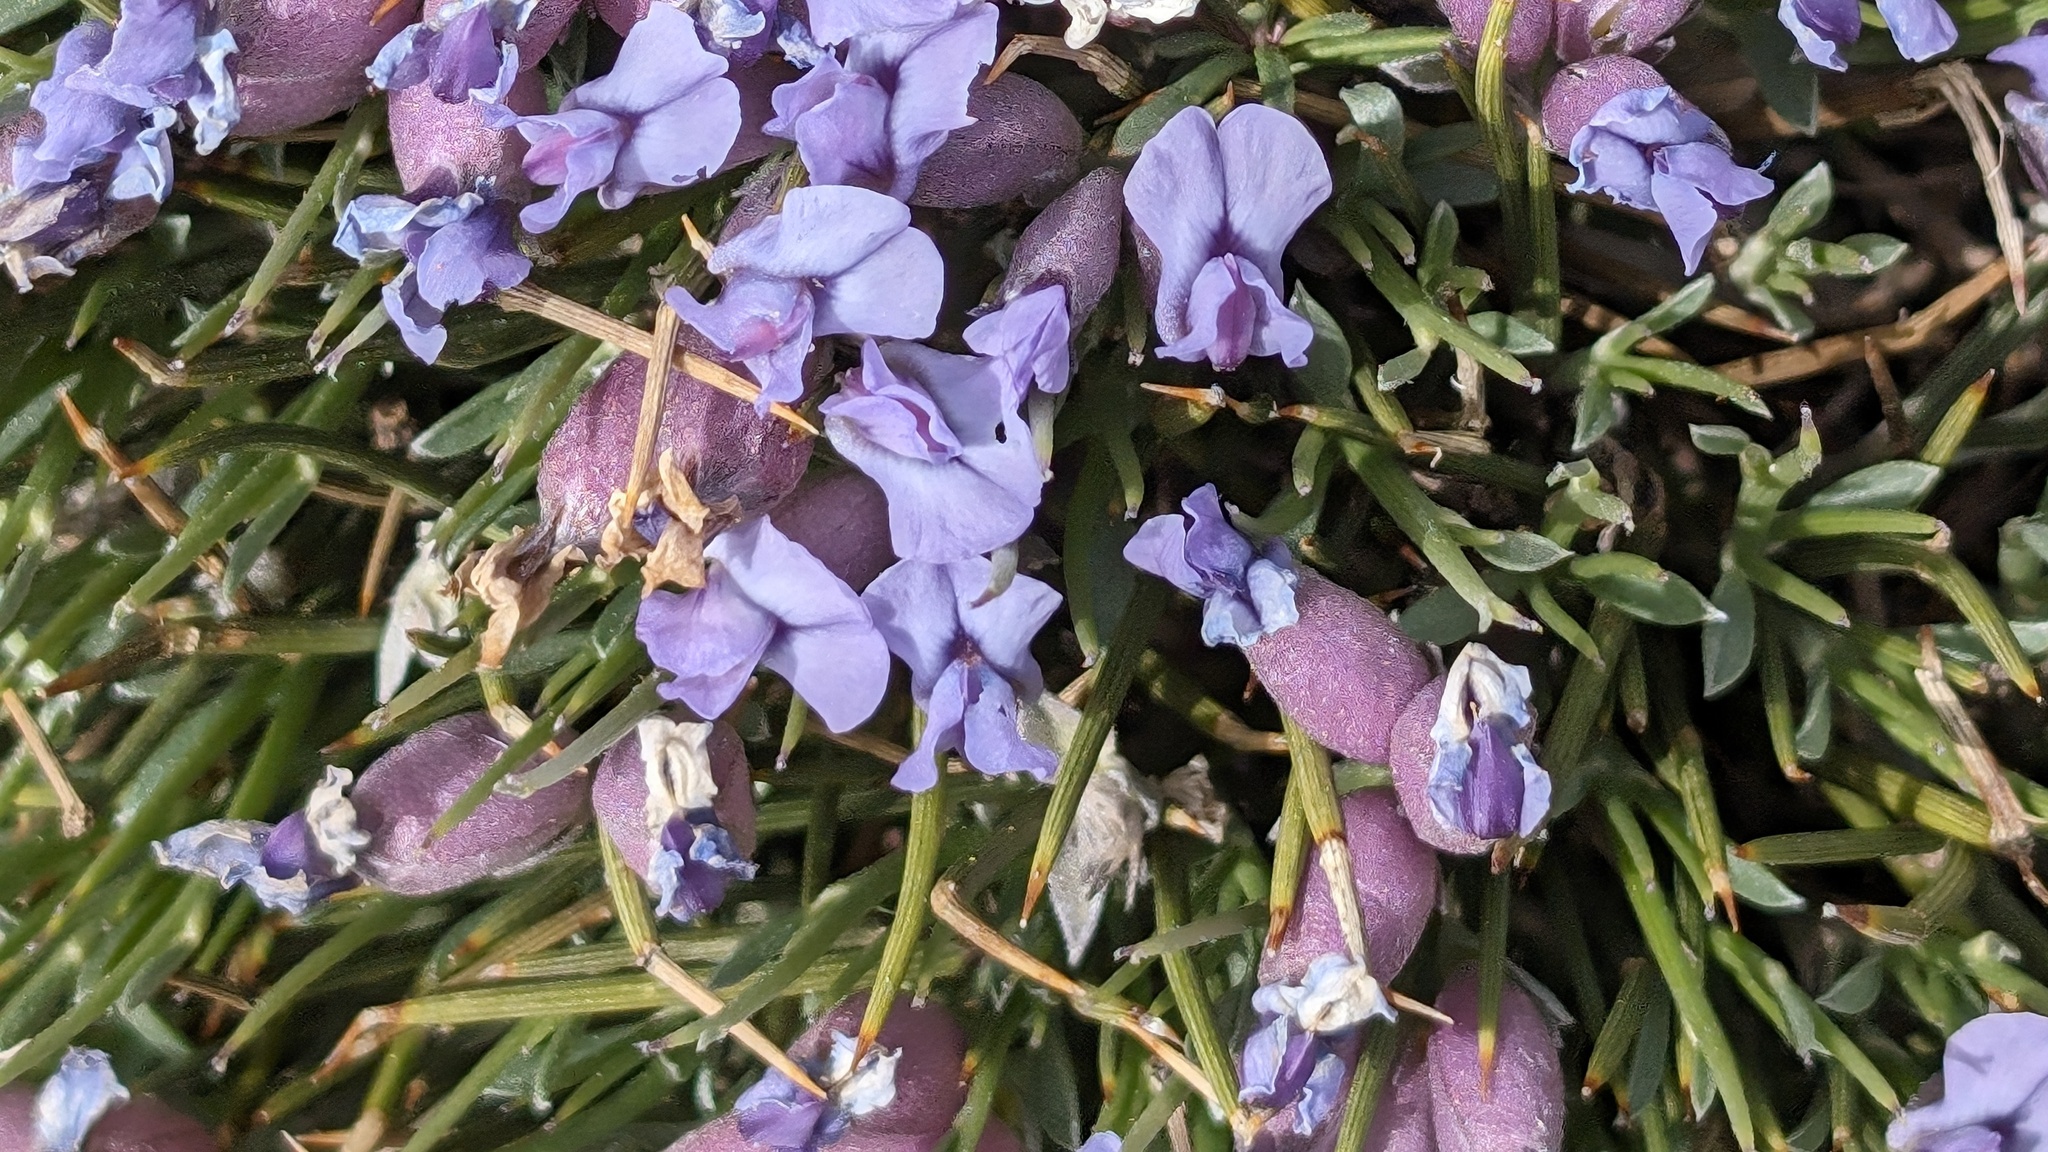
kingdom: Plantae
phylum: Tracheophyta
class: Magnoliopsida
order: Fabales
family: Fabaceae
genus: Erinacea
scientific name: Erinacea anthyllis
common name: Hedgehog-broom
